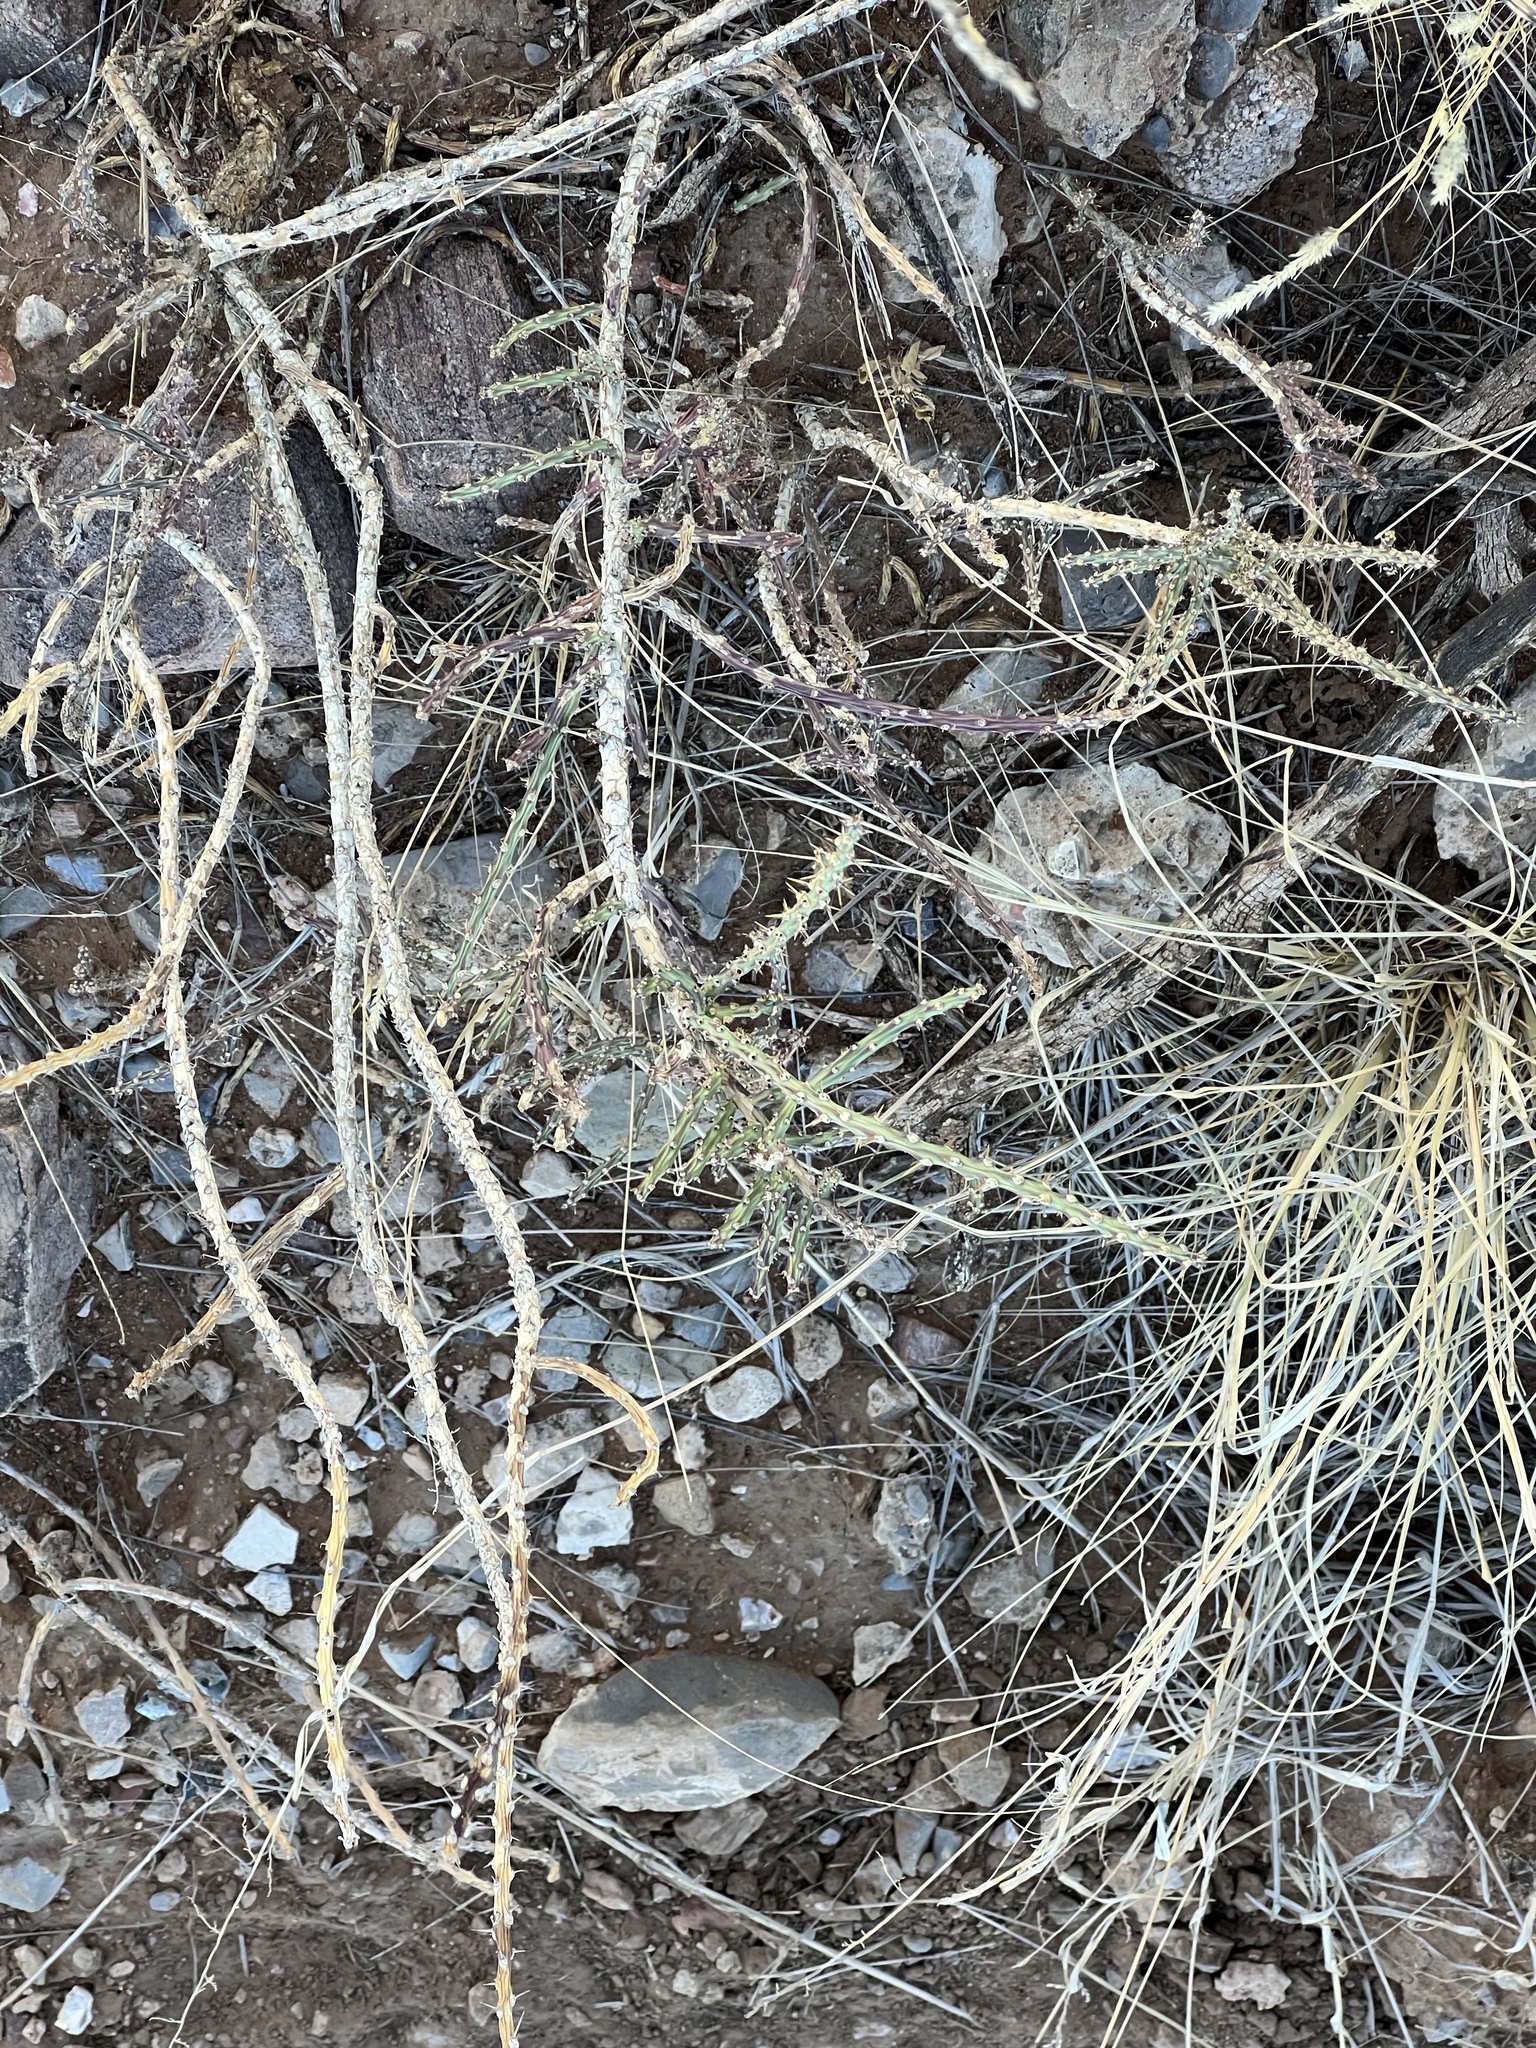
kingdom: Plantae
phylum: Tracheophyta
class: Magnoliopsida
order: Caryophyllales
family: Cactaceae
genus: Cylindropuntia
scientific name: Cylindropuntia leptocaulis
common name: Christmas cactus
